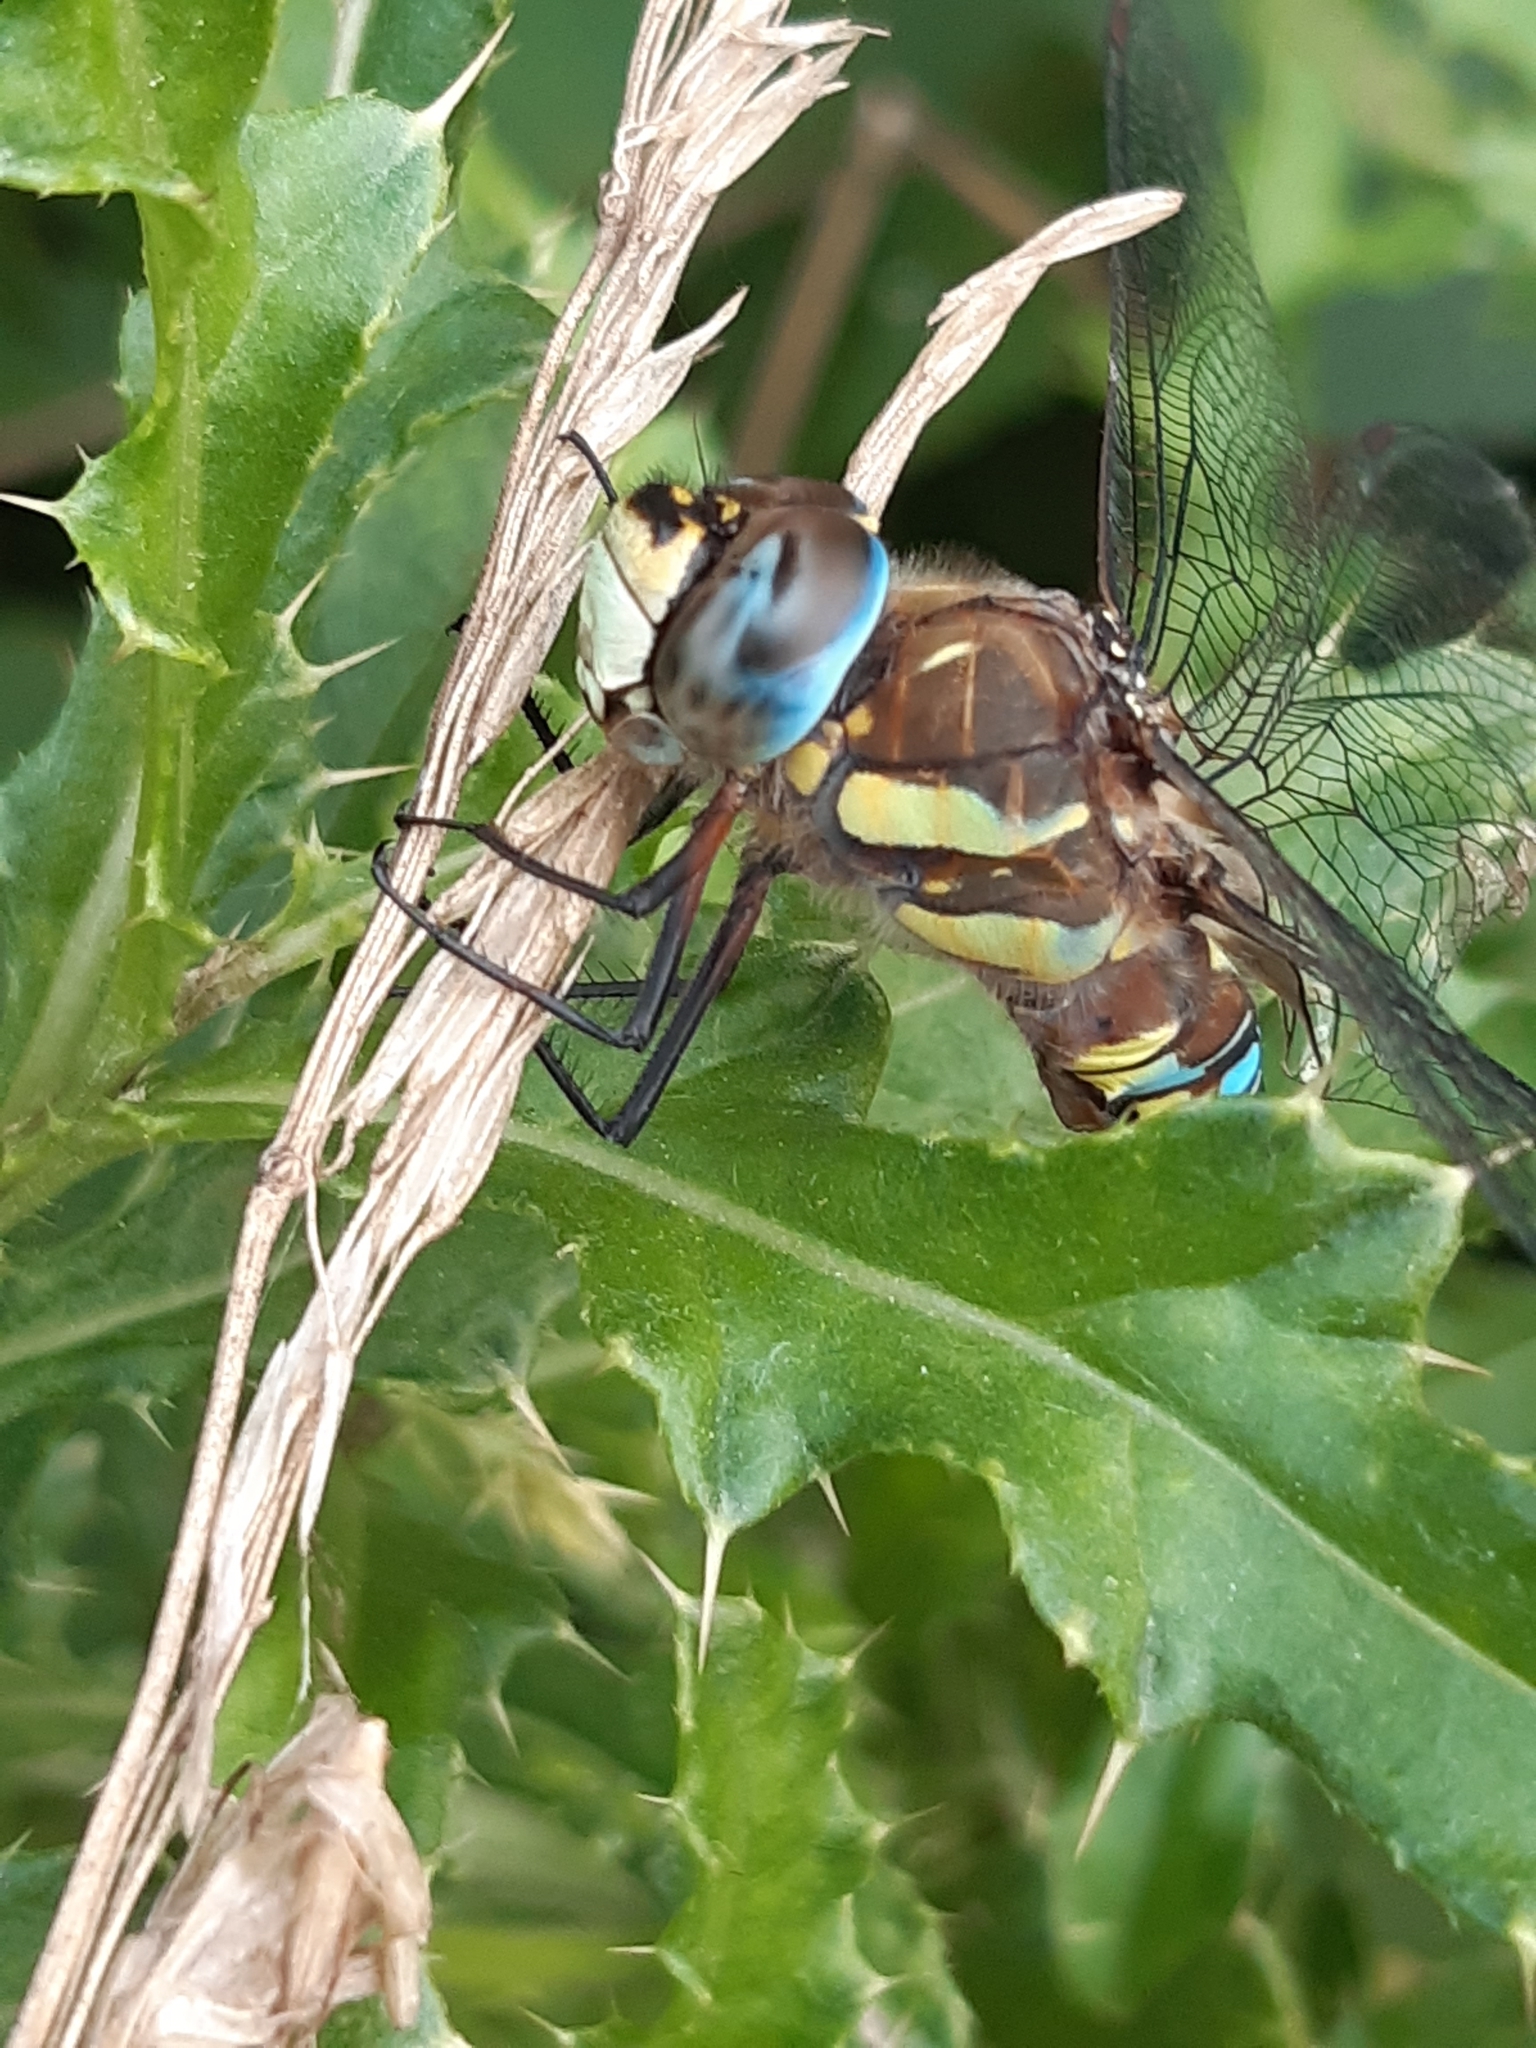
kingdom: Animalia
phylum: Arthropoda
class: Insecta
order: Odonata
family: Aeshnidae
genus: Aeshna
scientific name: Aeshna mixta
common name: Migrant hawker
